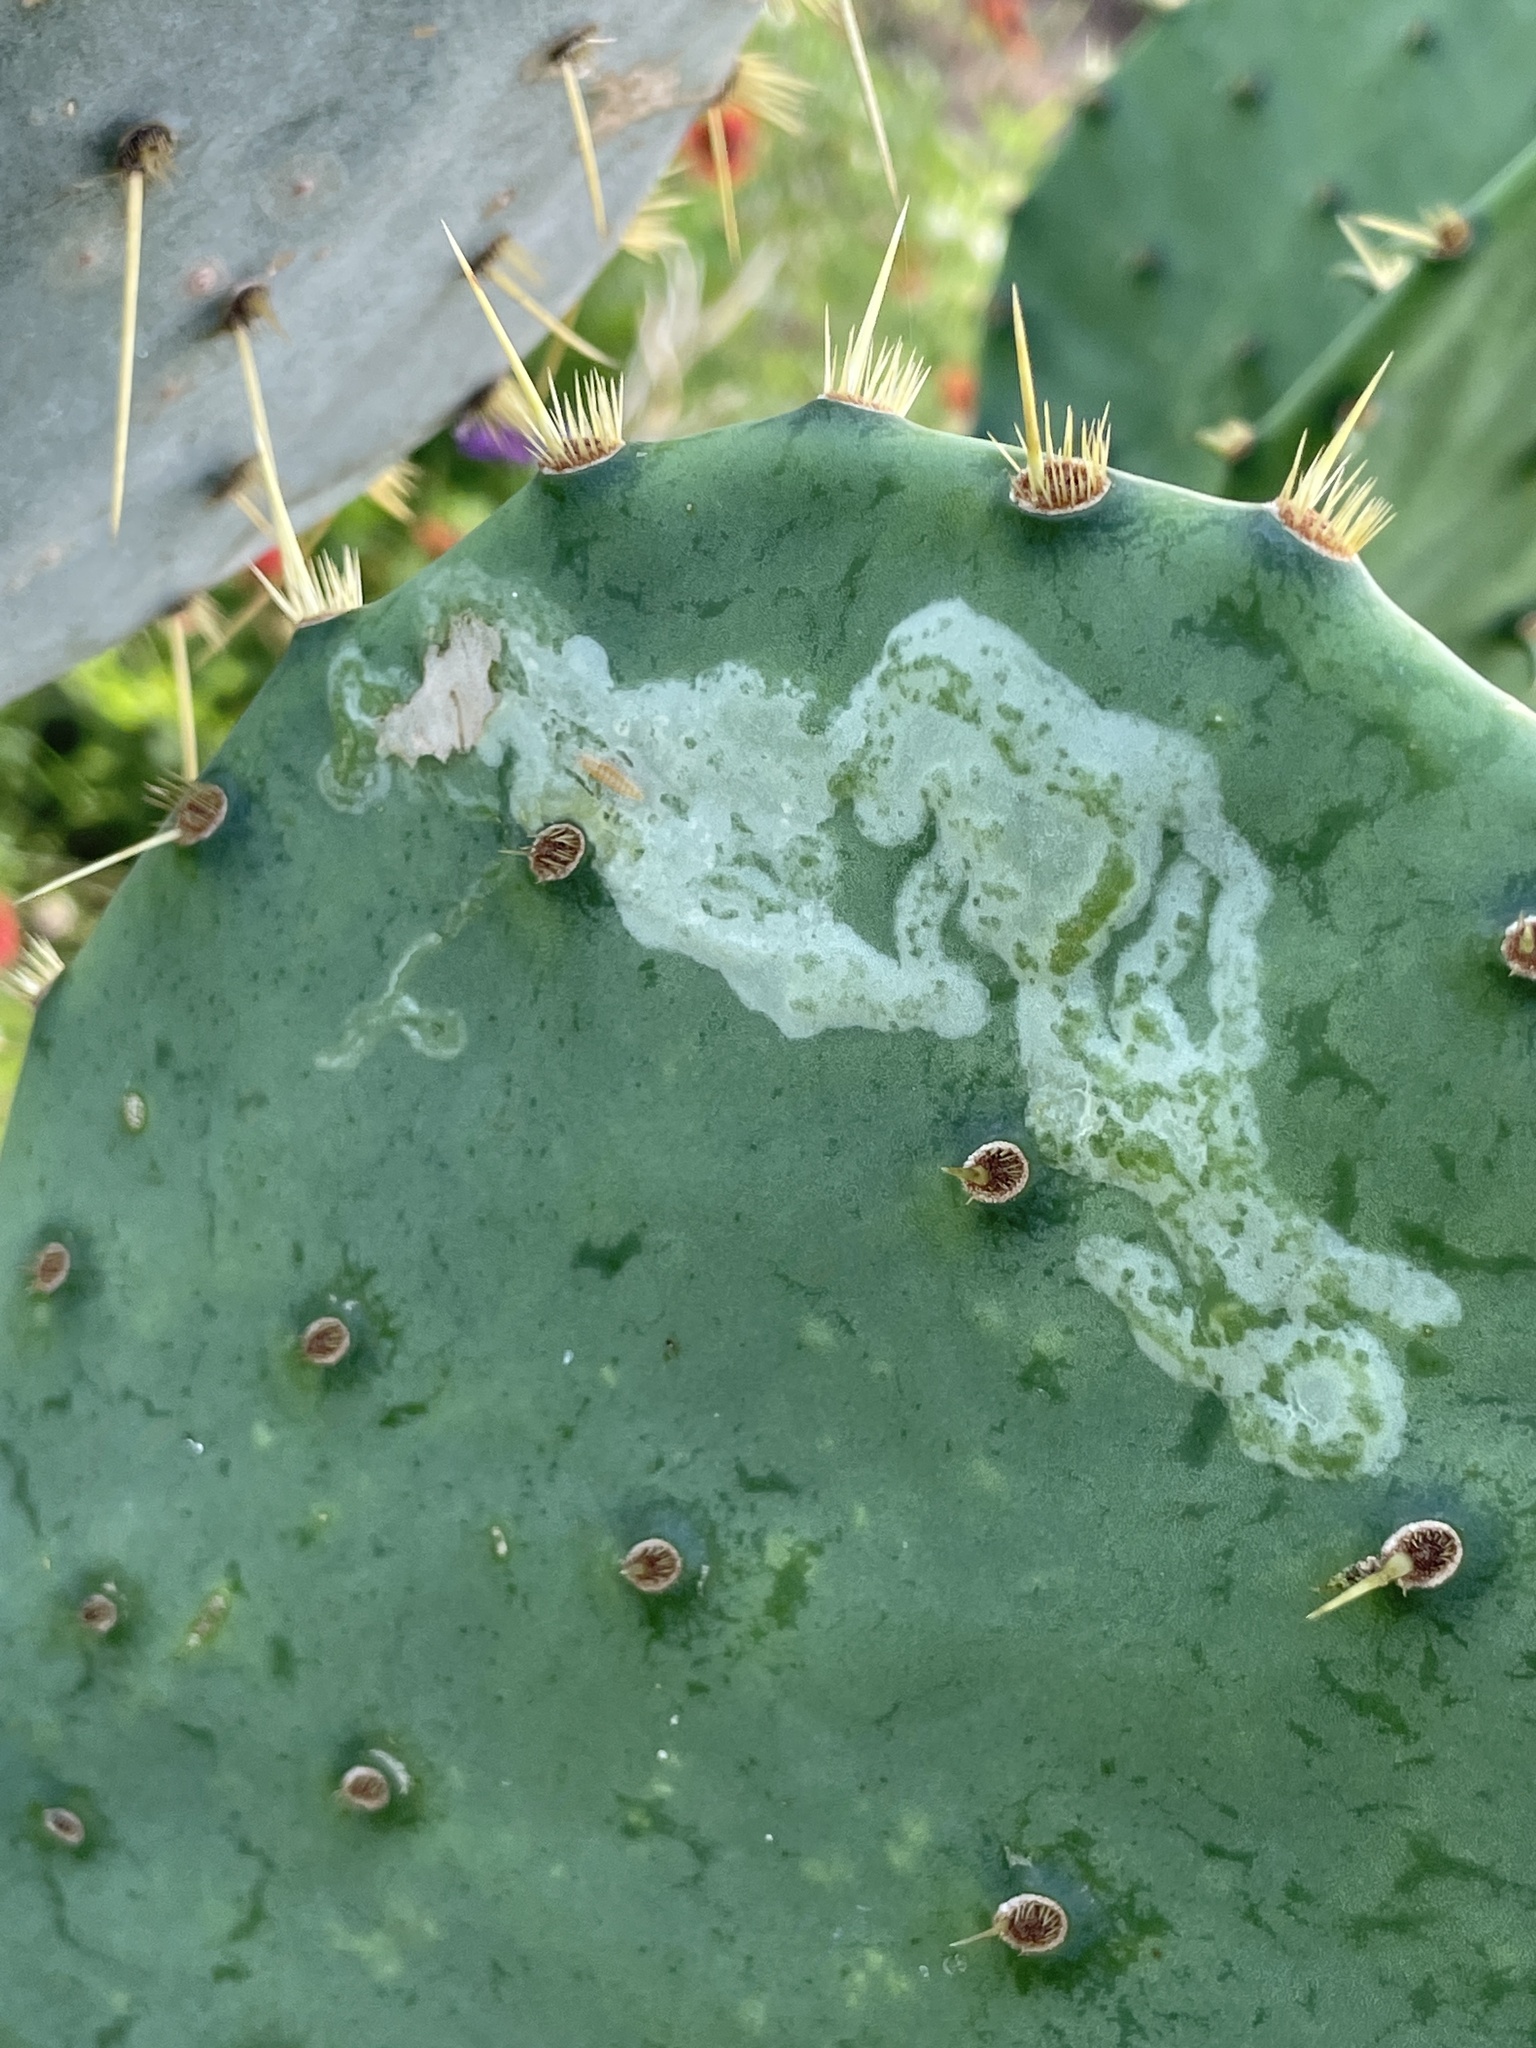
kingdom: Animalia
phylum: Arthropoda
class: Insecta
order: Lepidoptera
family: Gracillariidae
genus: Marmara
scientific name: Marmara opuntiella
